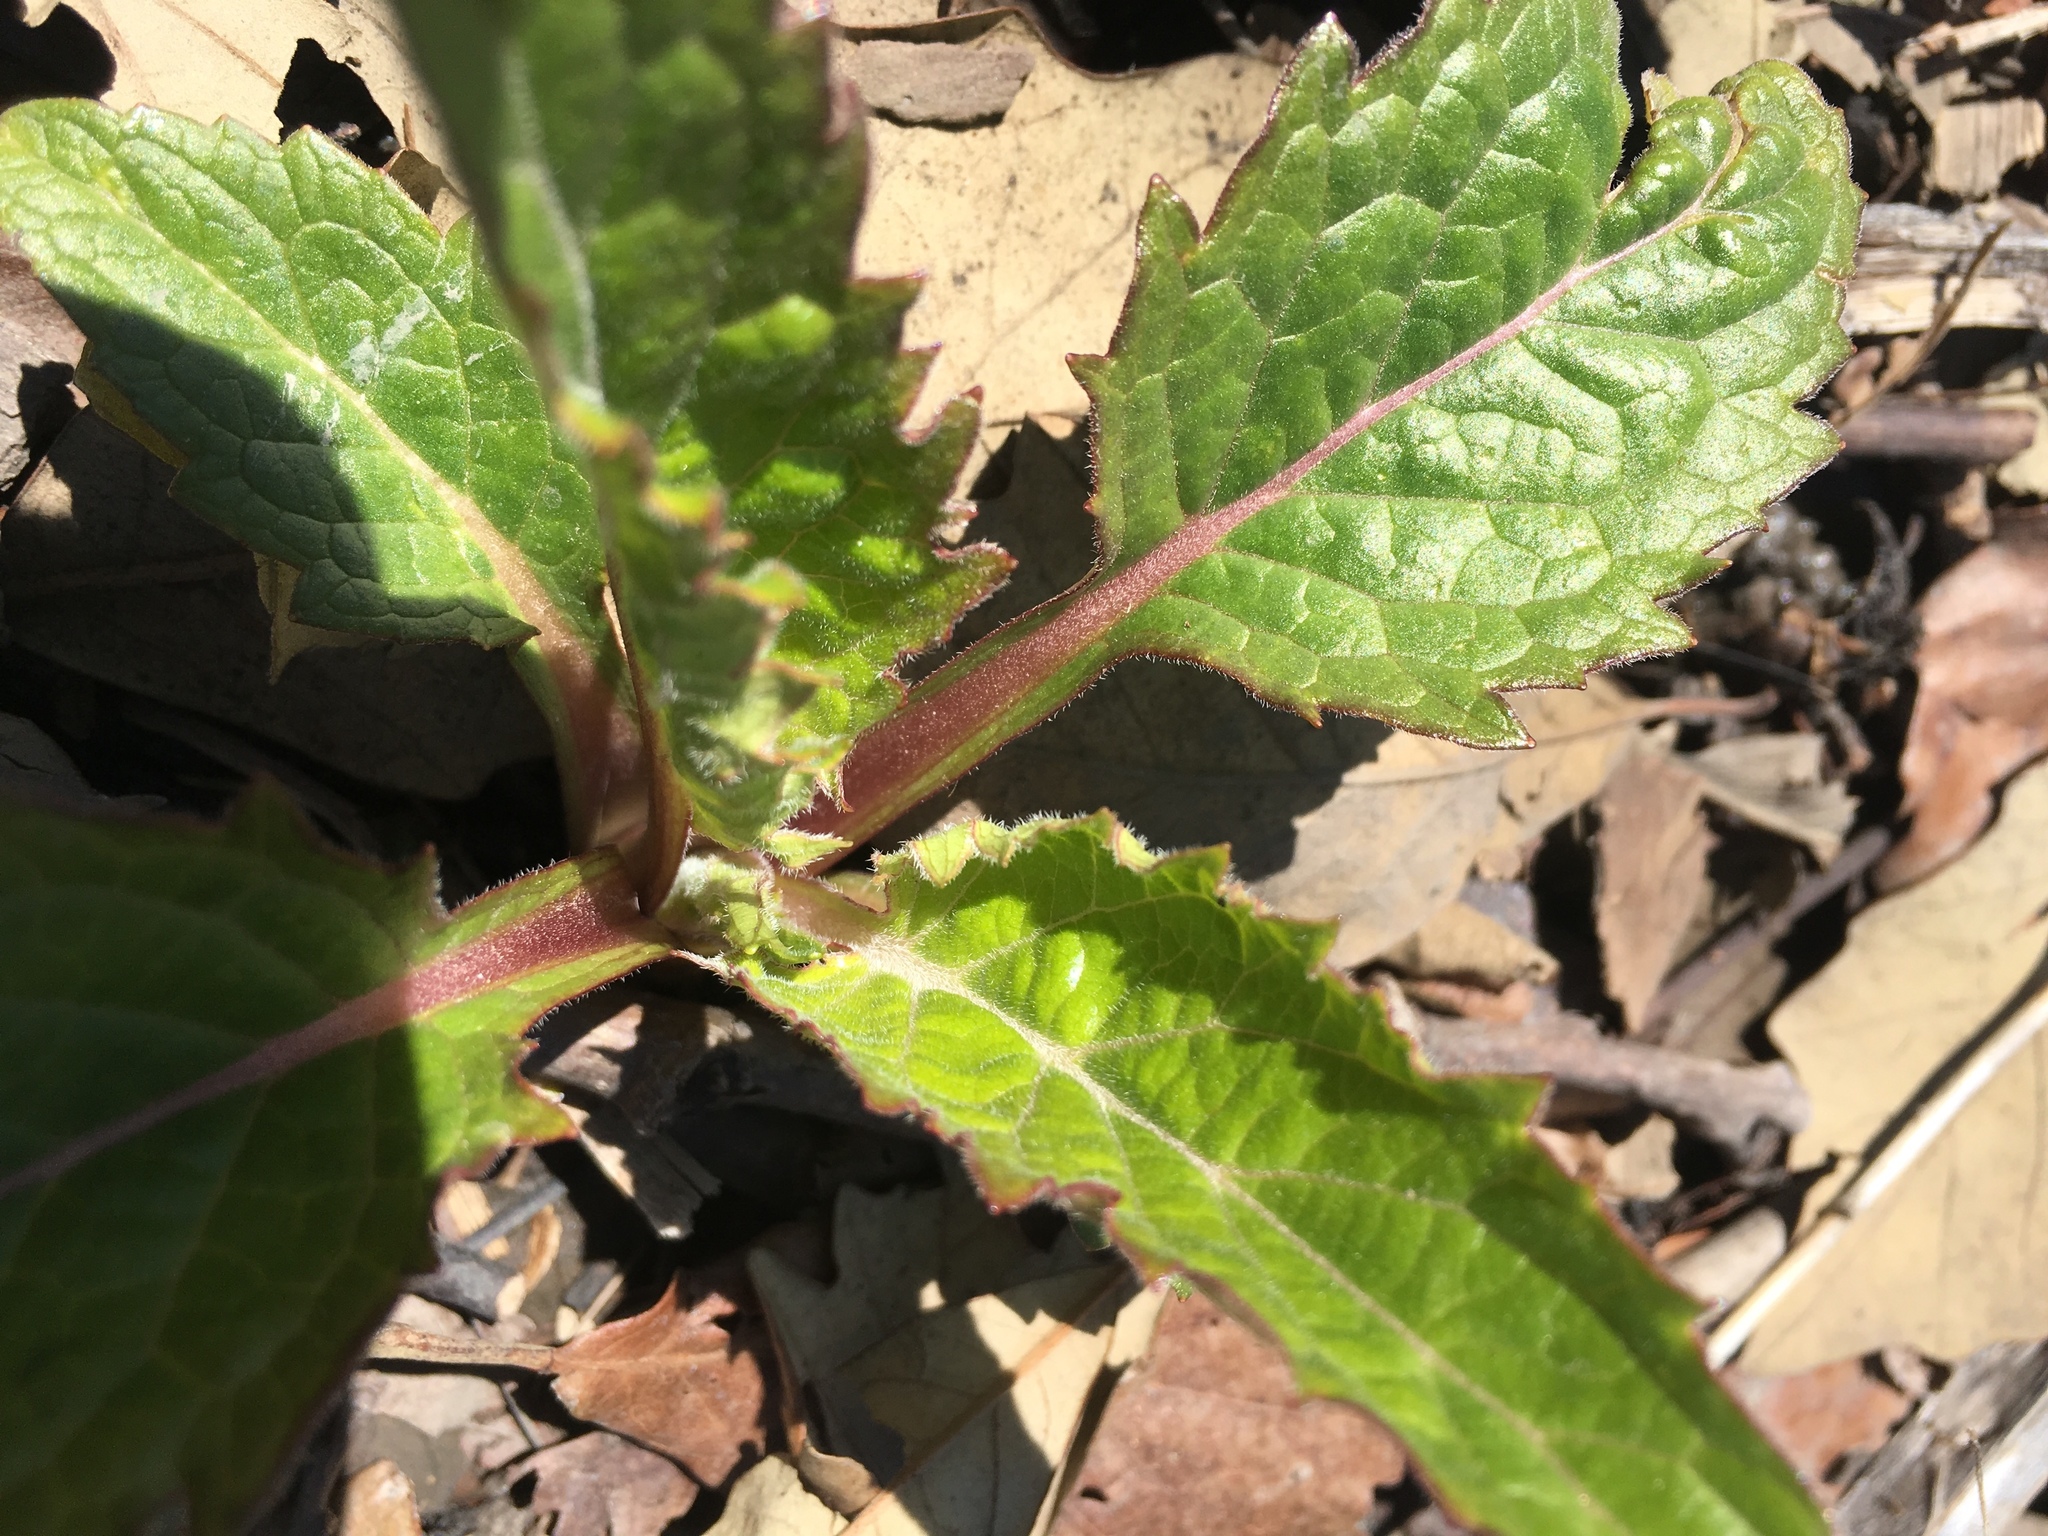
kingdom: Plantae
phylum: Tracheophyta
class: Magnoliopsida
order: Asterales
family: Asteraceae
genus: Silphium
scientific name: Silphium perfoliatum
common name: Cup-plant
